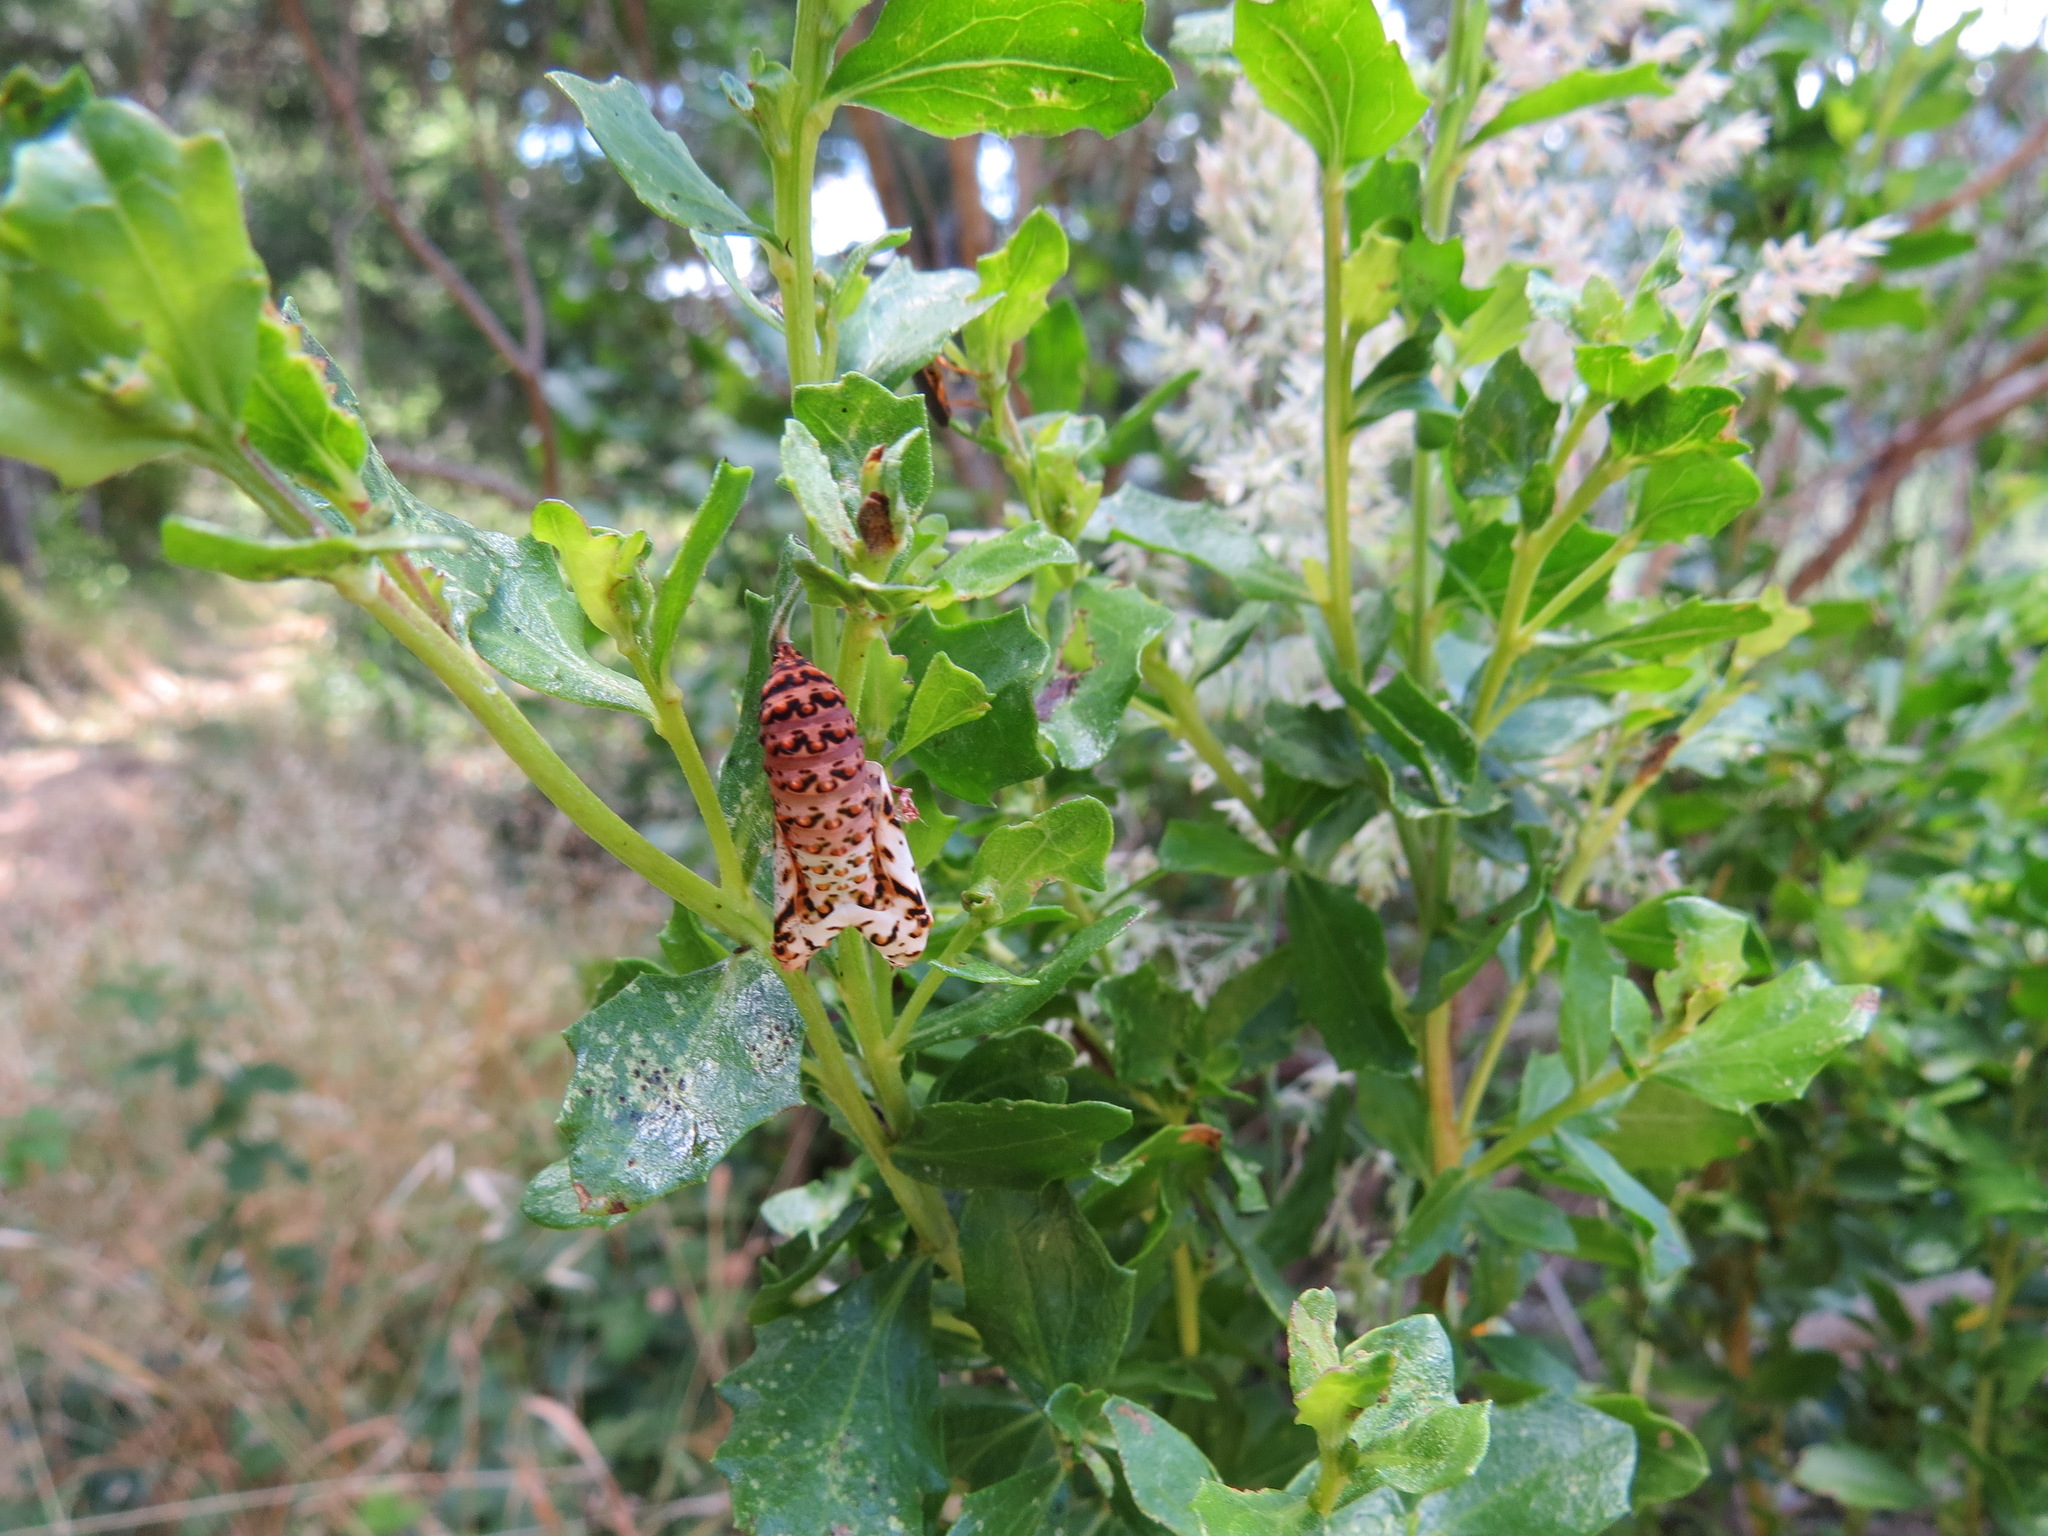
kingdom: Animalia
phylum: Arthropoda
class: Insecta
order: Lepidoptera
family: Nymphalidae
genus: Occidryas
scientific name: Occidryas chalcedona
